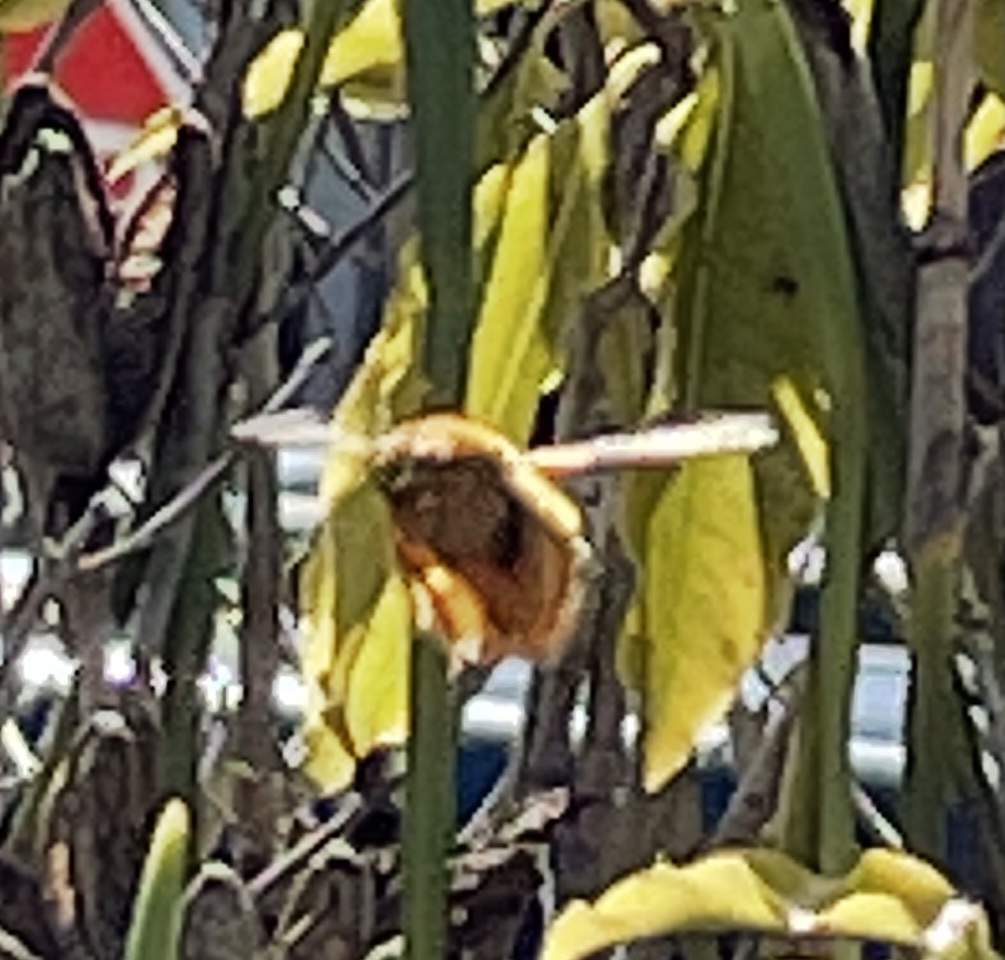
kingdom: Animalia
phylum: Arthropoda
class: Insecta
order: Hymenoptera
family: Apidae
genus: Xylocopa
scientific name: Xylocopa sonorina
